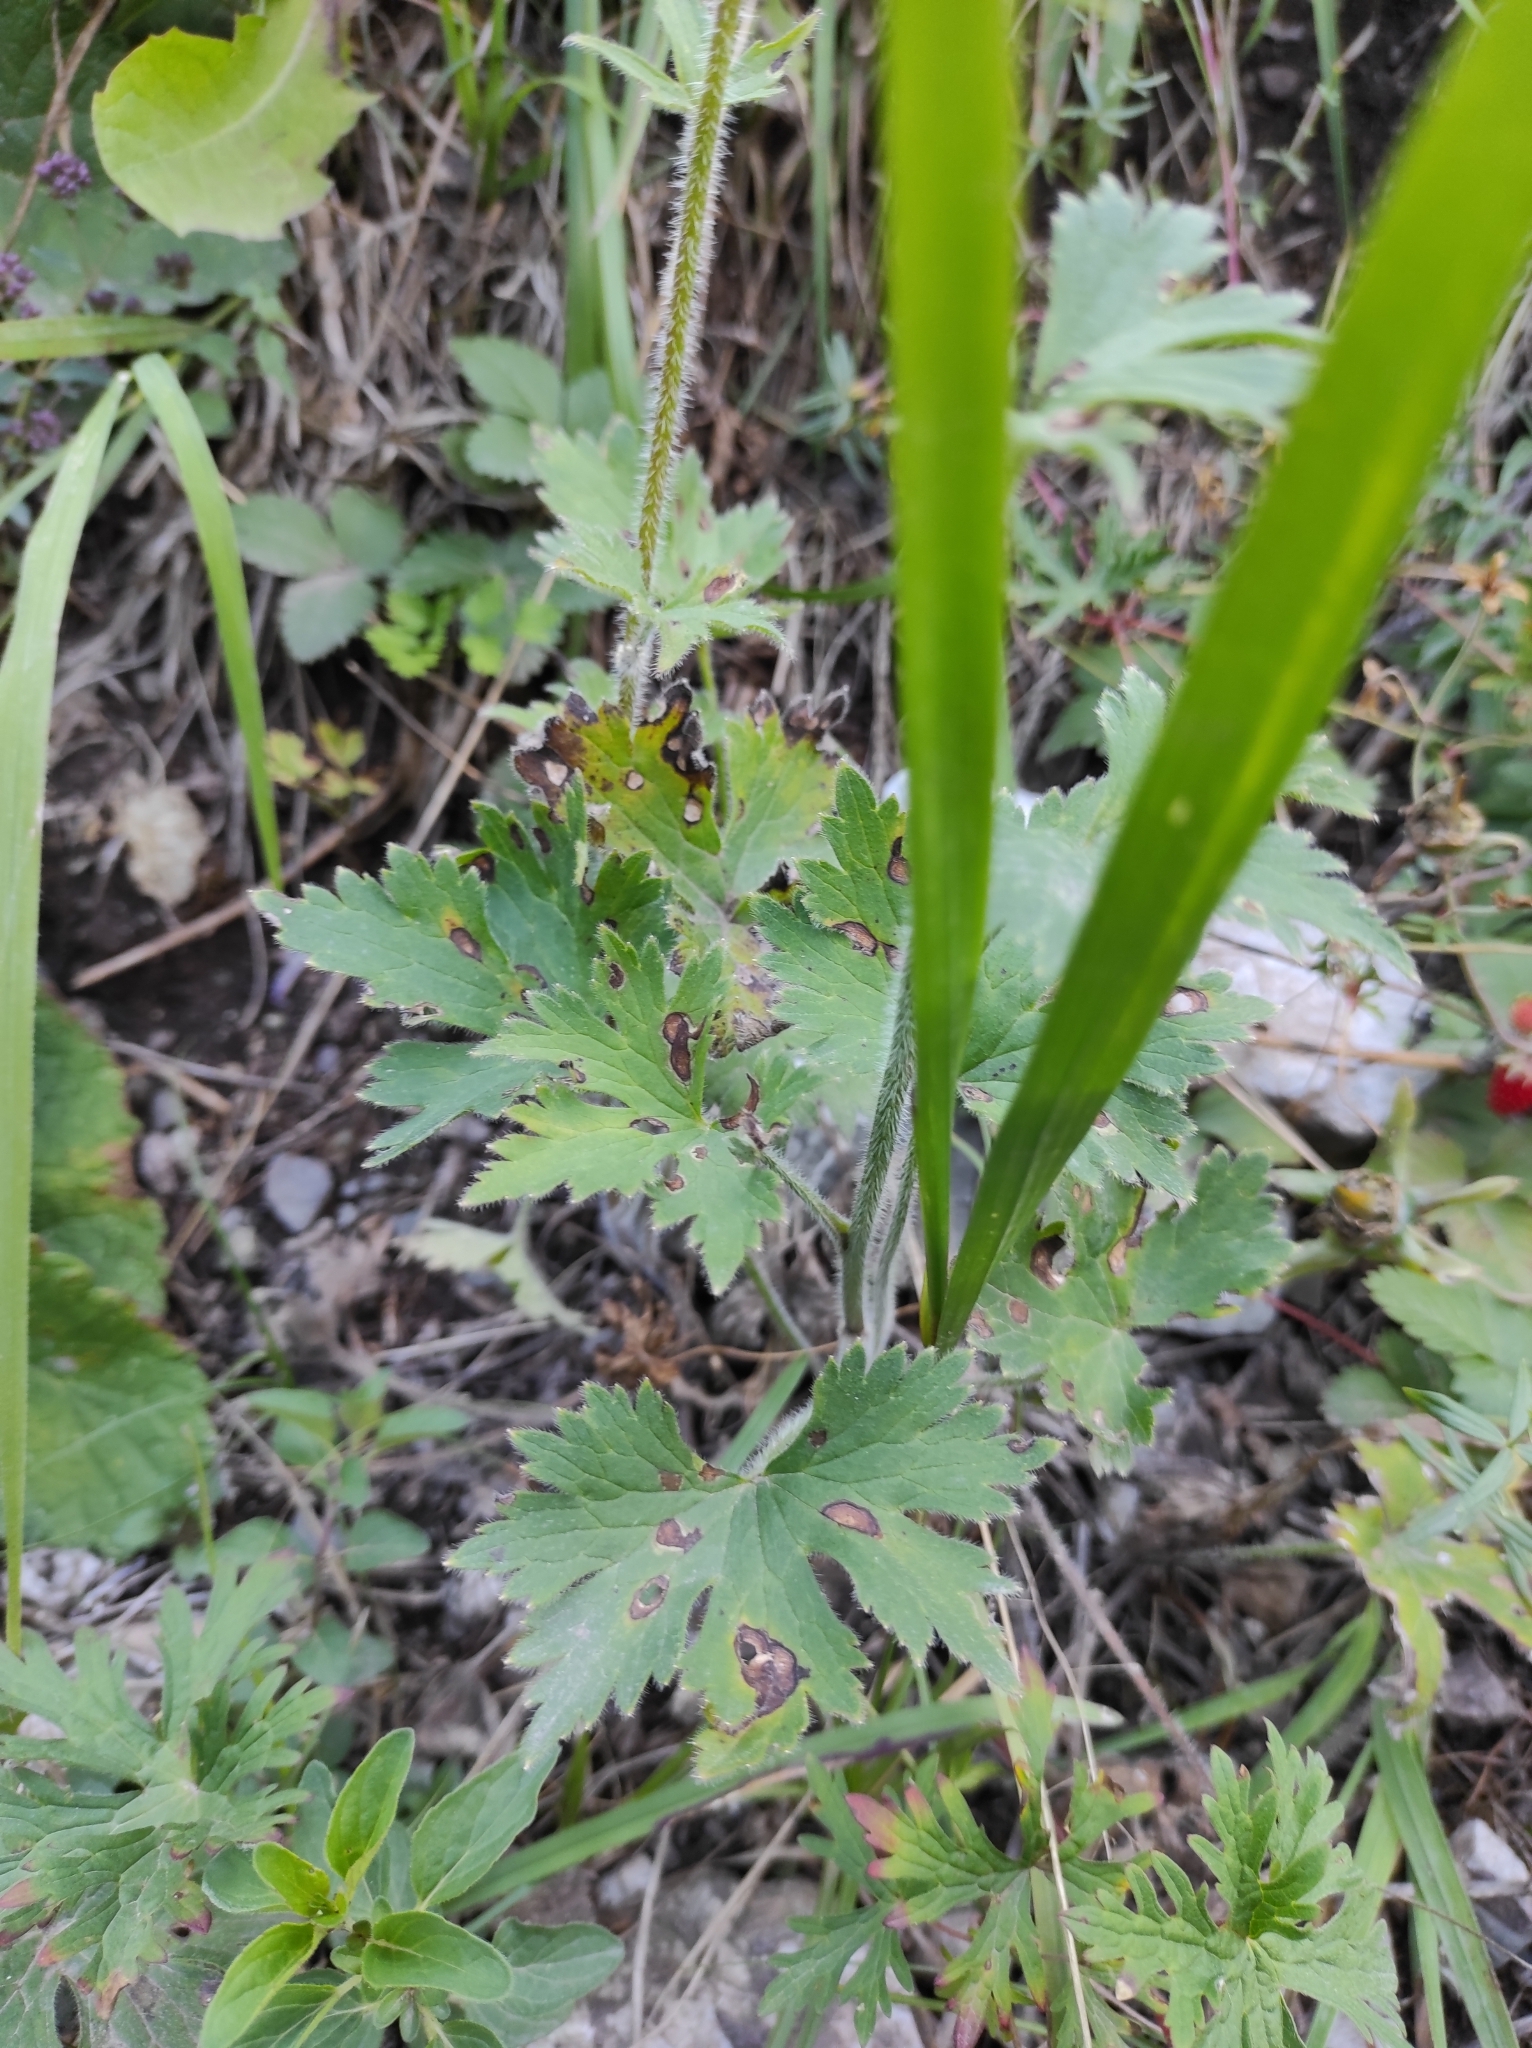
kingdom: Plantae
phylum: Tracheophyta
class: Magnoliopsida
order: Ranunculales
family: Ranunculaceae
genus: Delphinium
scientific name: Delphinium iliense
